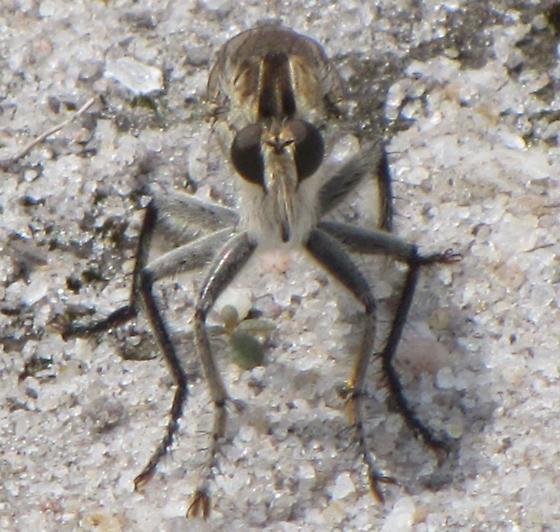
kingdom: Animalia
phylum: Arthropoda
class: Insecta
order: Diptera
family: Asilidae
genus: Triorla
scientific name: Triorla interrupta
